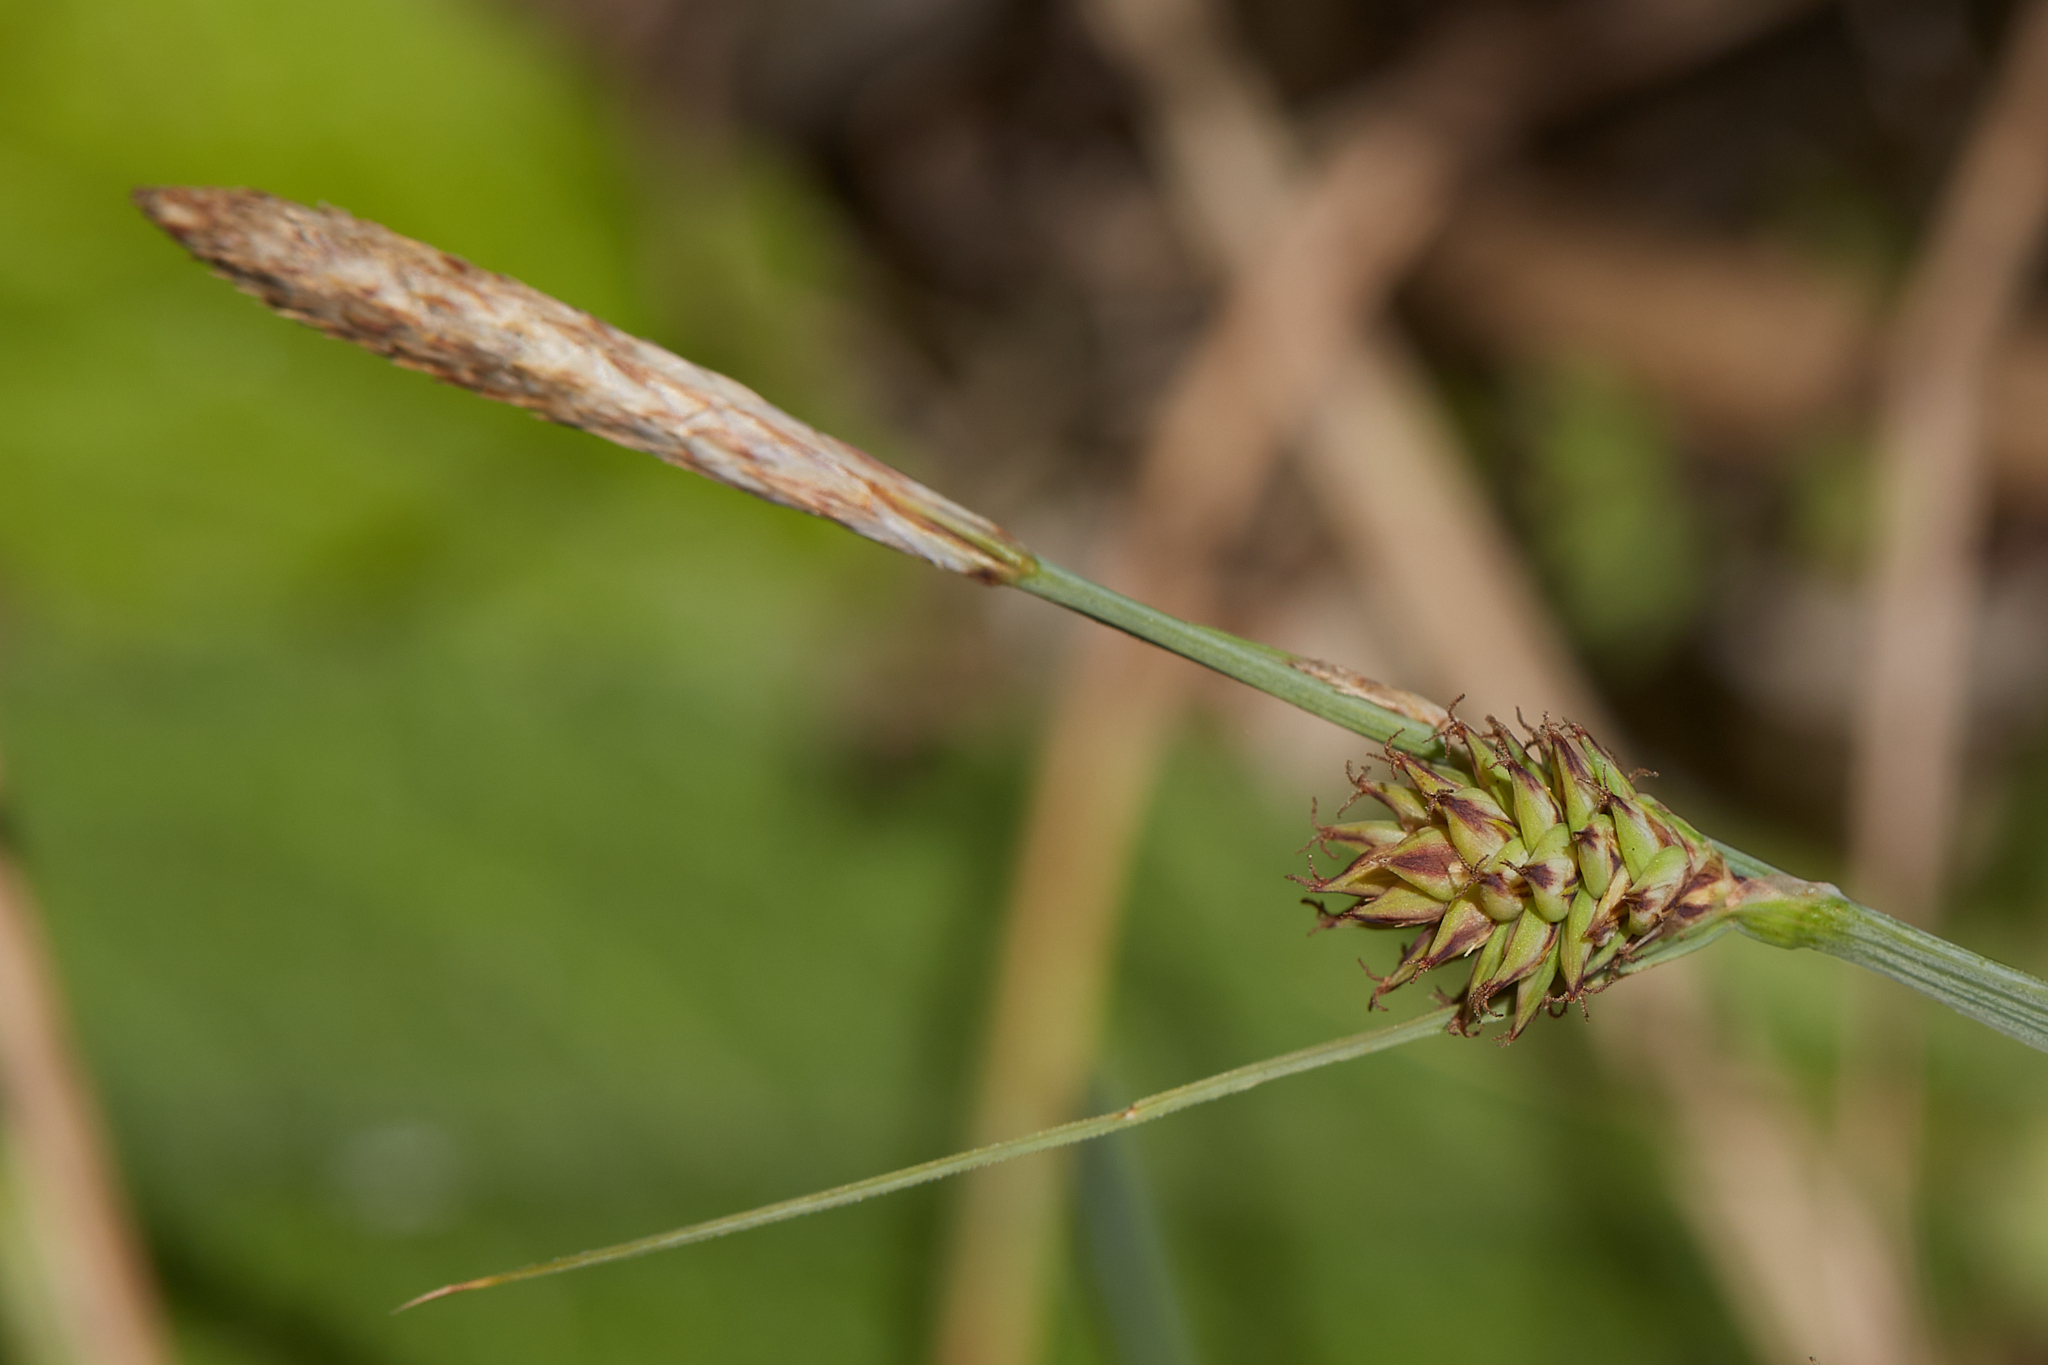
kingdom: Plantae
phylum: Tracheophyta
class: Liliopsida
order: Poales
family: Cyperaceae
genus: Carex
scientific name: Carex serratodens
